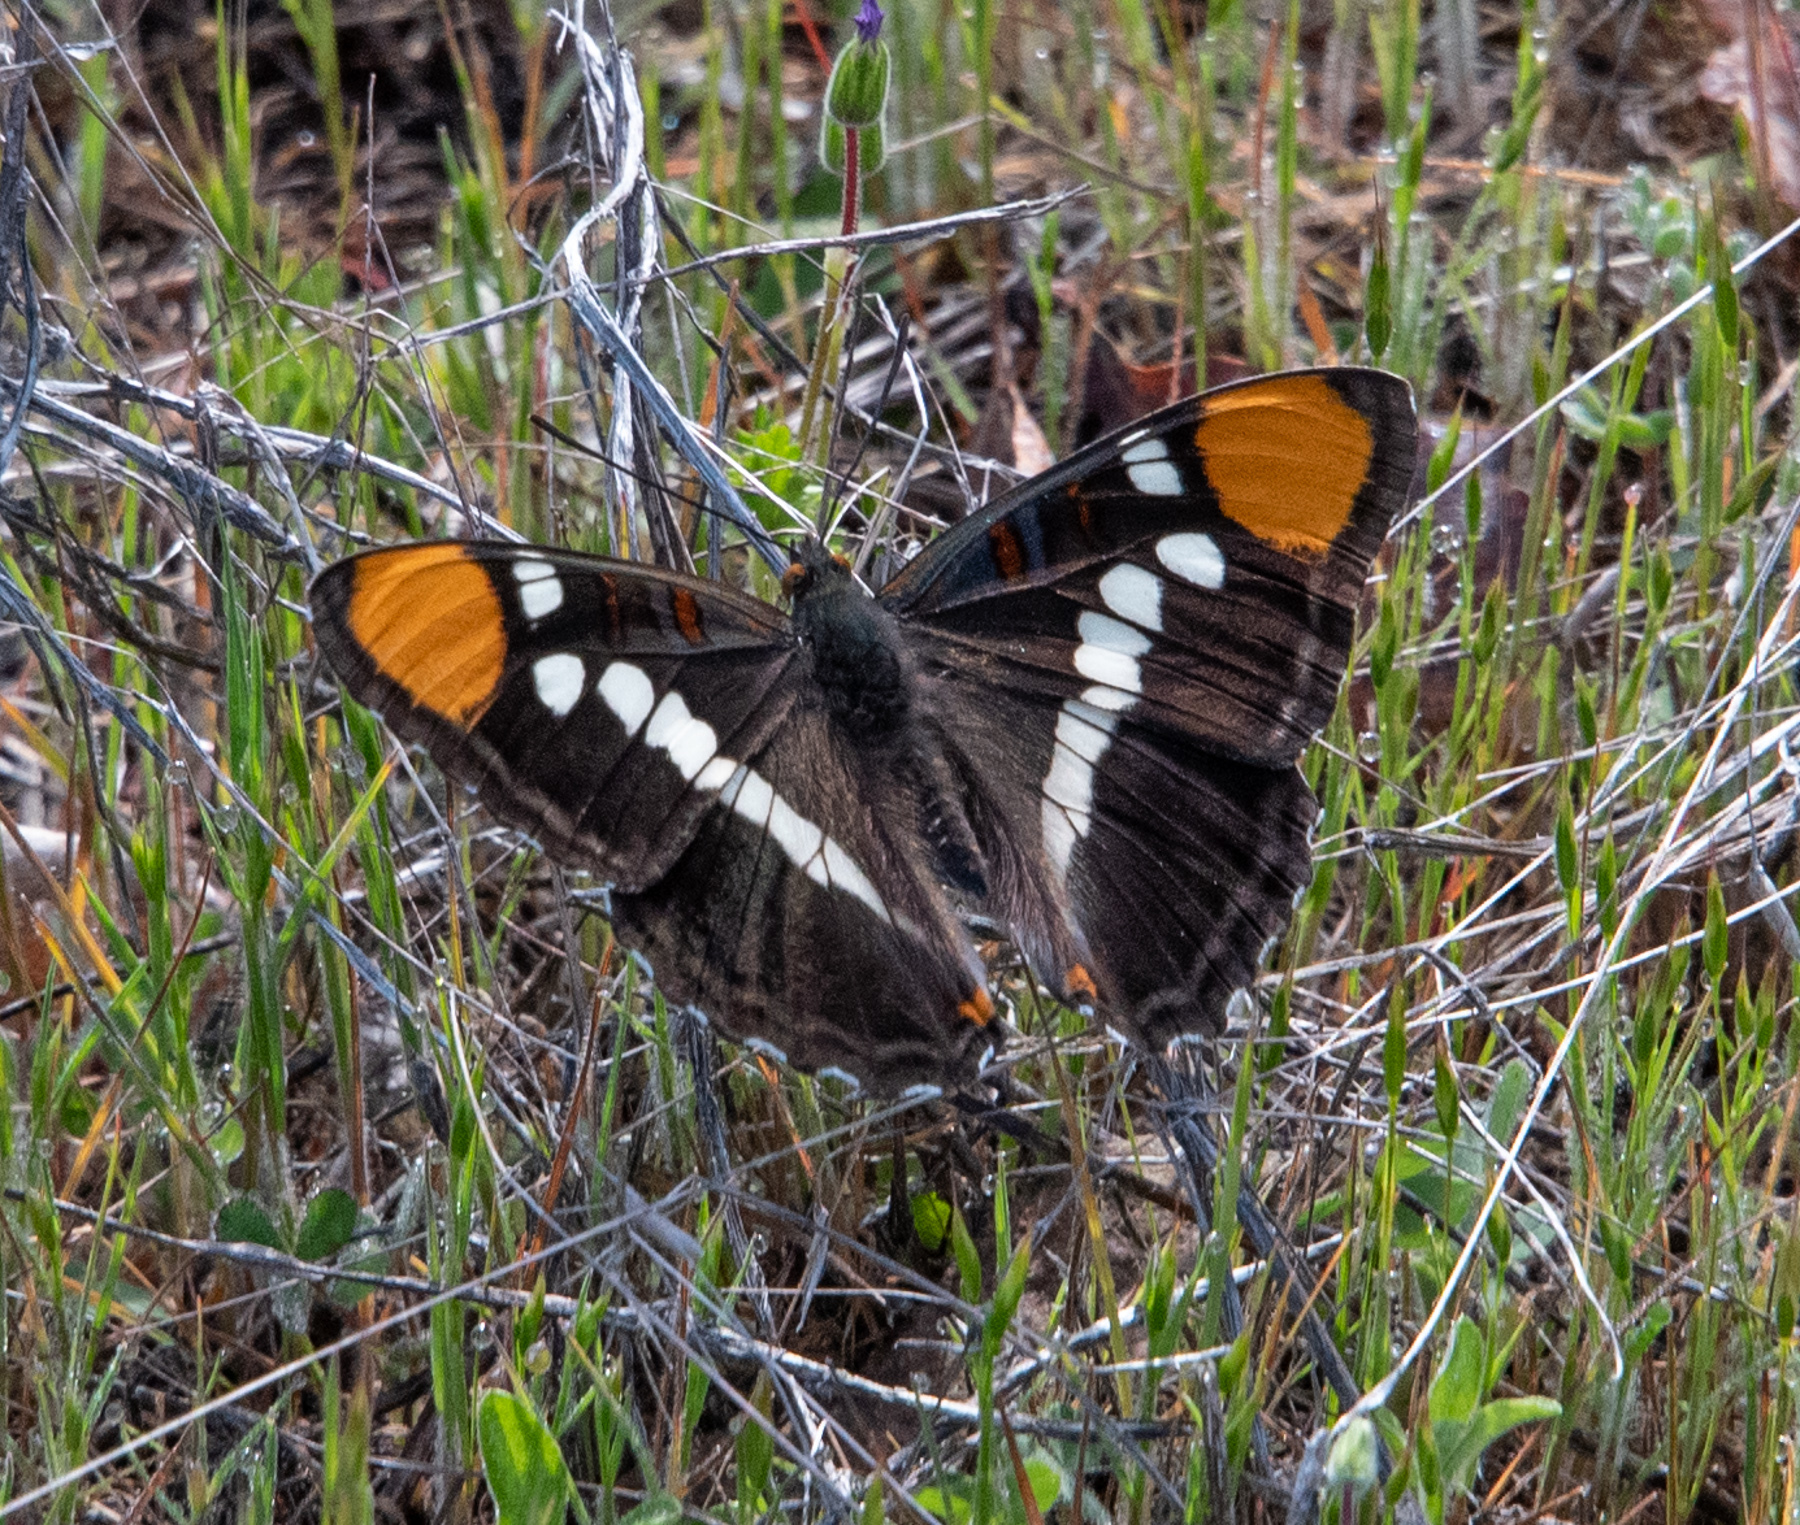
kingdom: Animalia
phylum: Arthropoda
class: Insecta
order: Lepidoptera
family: Nymphalidae
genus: Limenitis
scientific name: Limenitis bredowii
